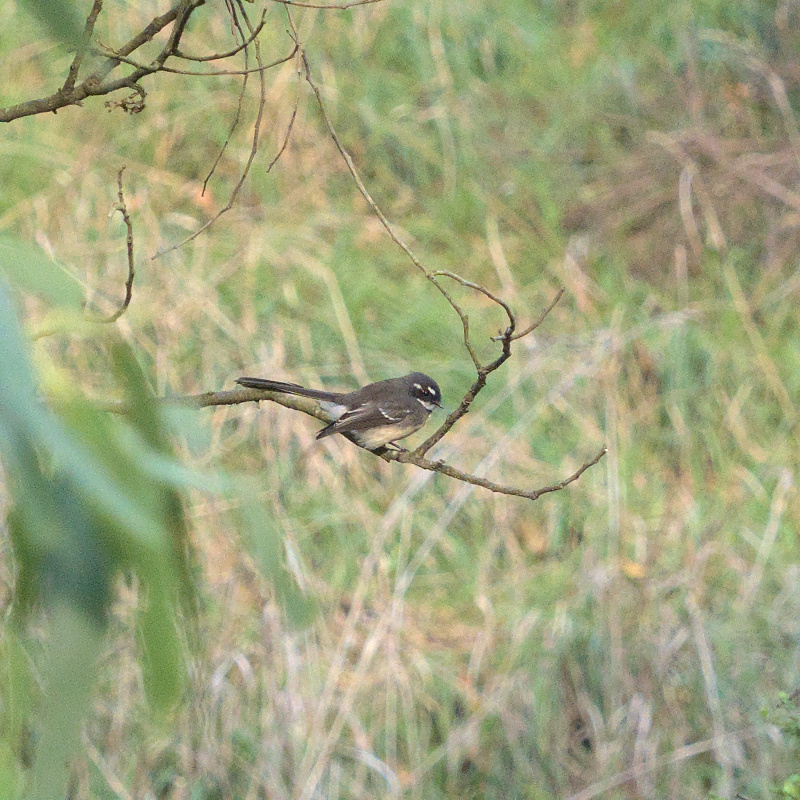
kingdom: Animalia
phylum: Chordata
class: Aves
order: Passeriformes
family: Rhipiduridae
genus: Rhipidura
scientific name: Rhipidura albiscapa
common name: Grey fantail
